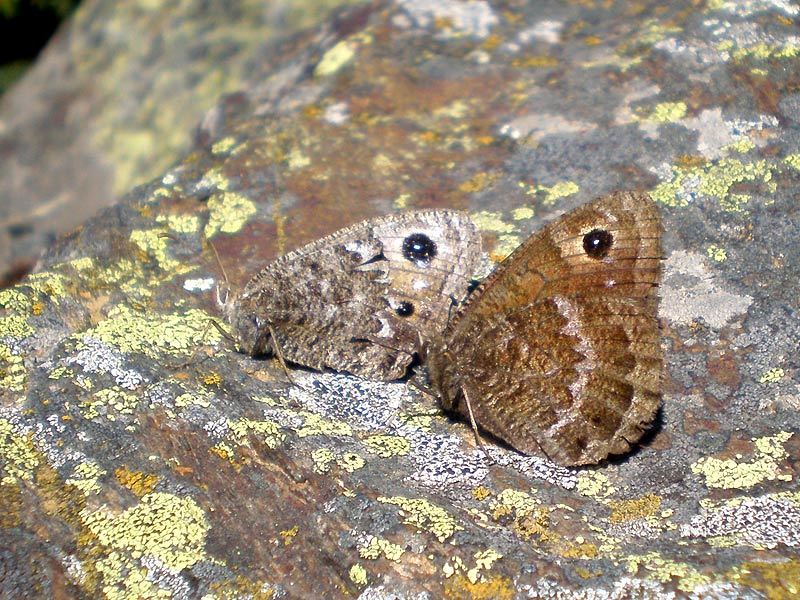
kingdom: Animalia
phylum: Arthropoda
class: Insecta
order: Lepidoptera
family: Nymphalidae
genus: Satyrus
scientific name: Satyrus actaea
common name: Black satyr
